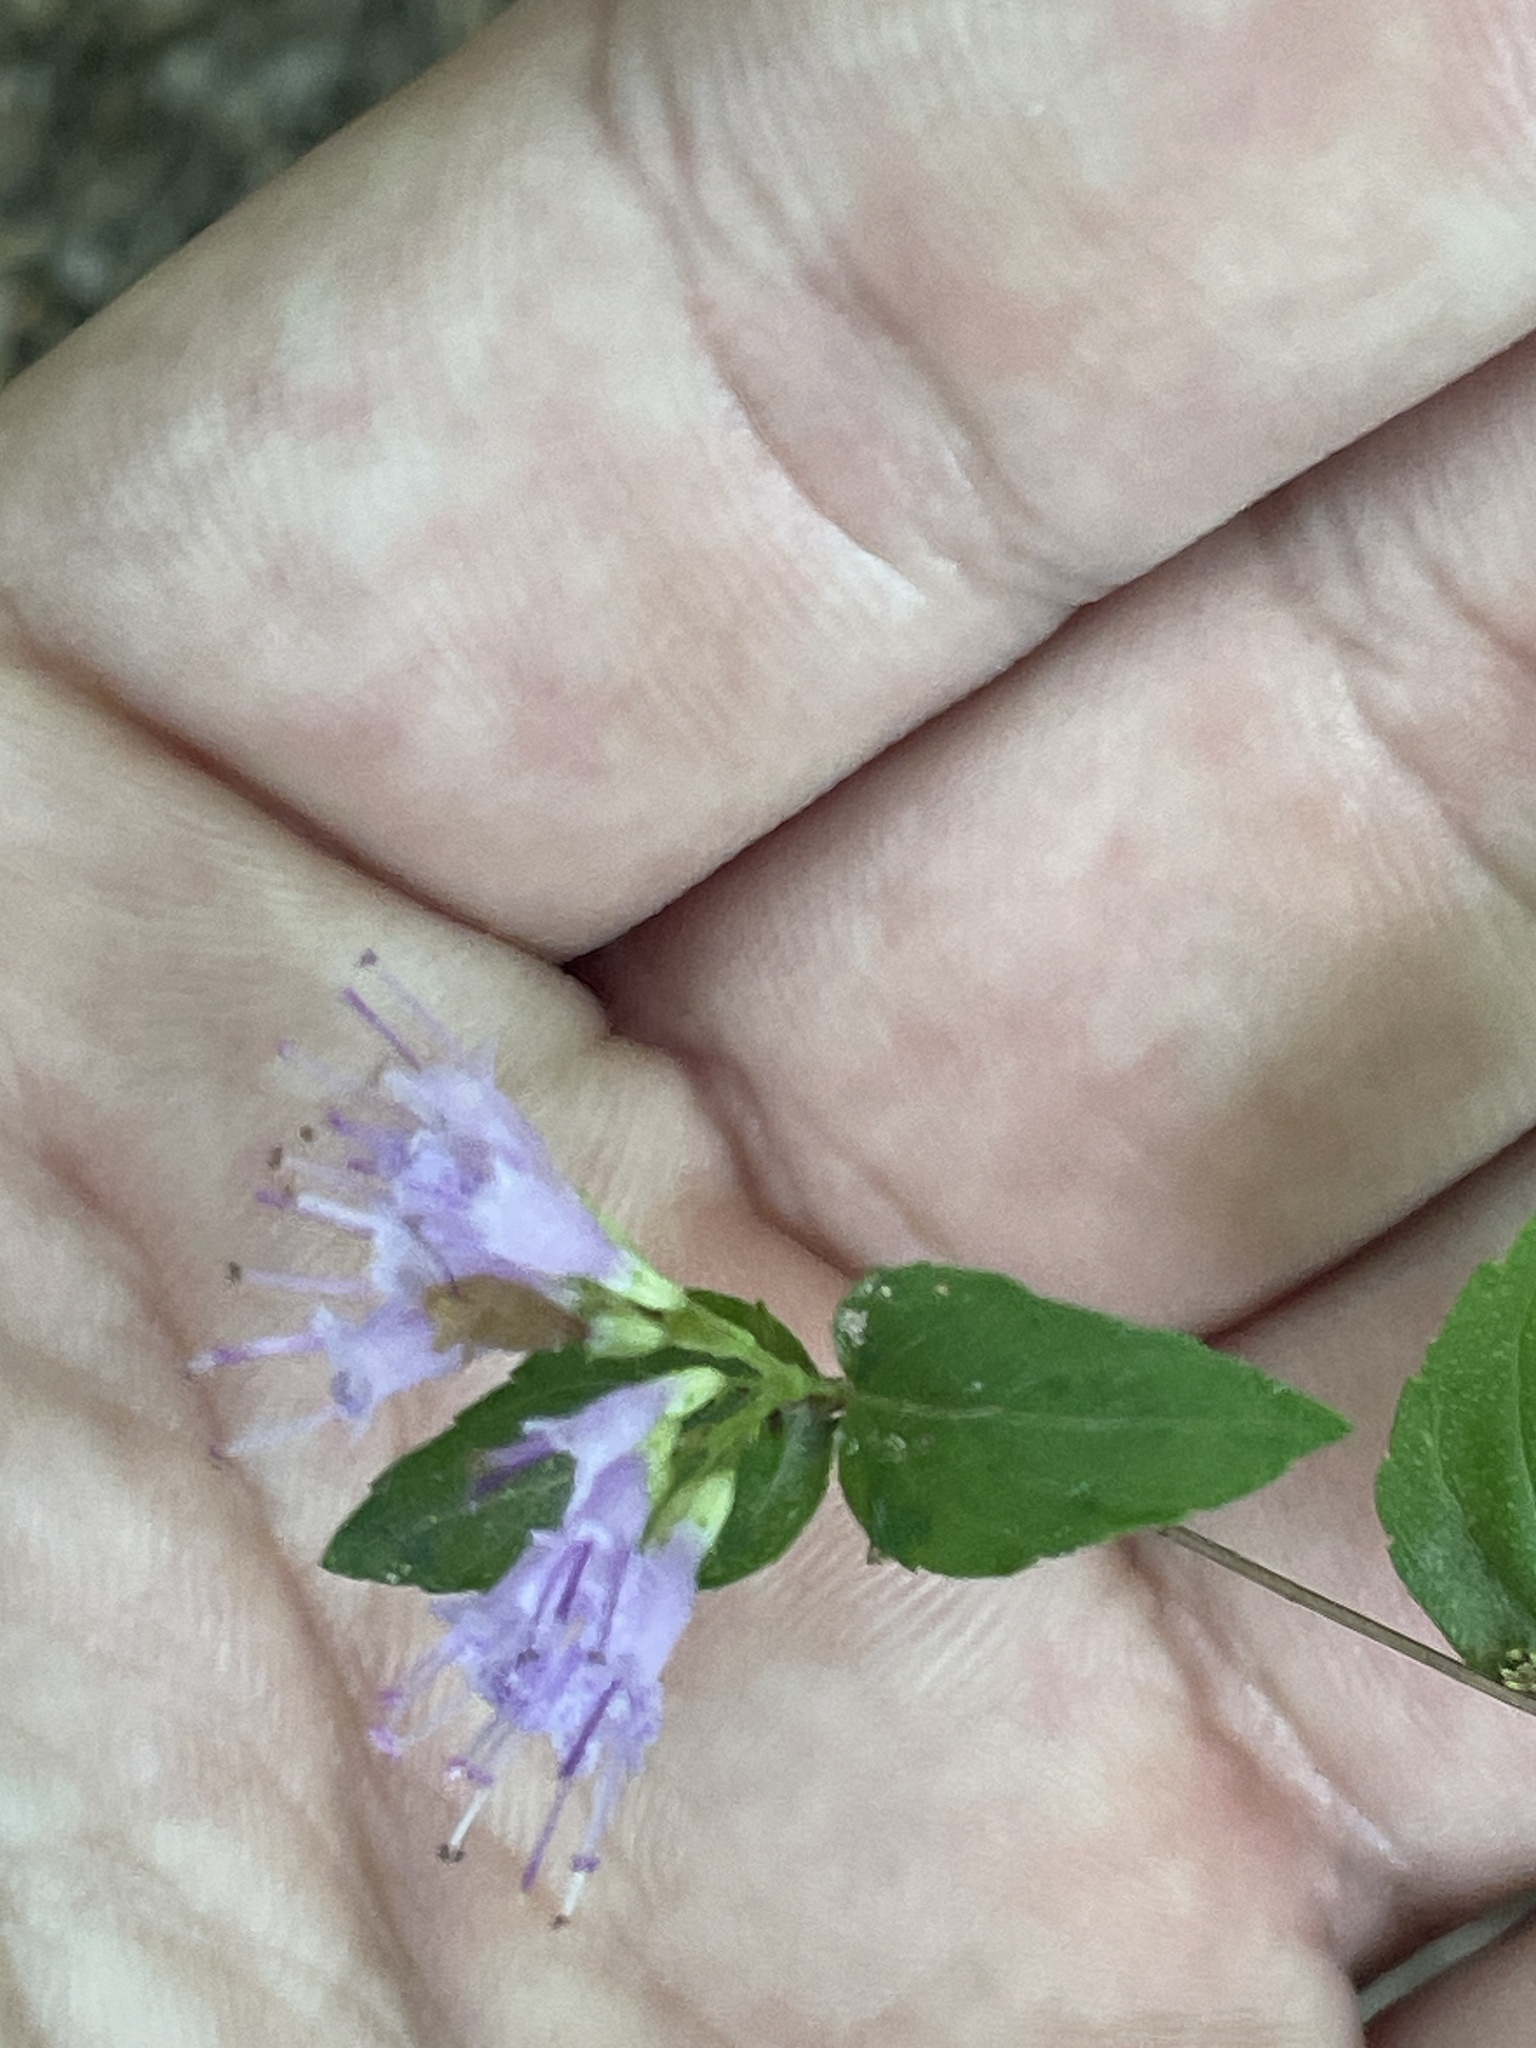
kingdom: Plantae
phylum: Tracheophyta
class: Magnoliopsida
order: Lamiales
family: Lamiaceae
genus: Cunila
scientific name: Cunila origanoides
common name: American dittany
